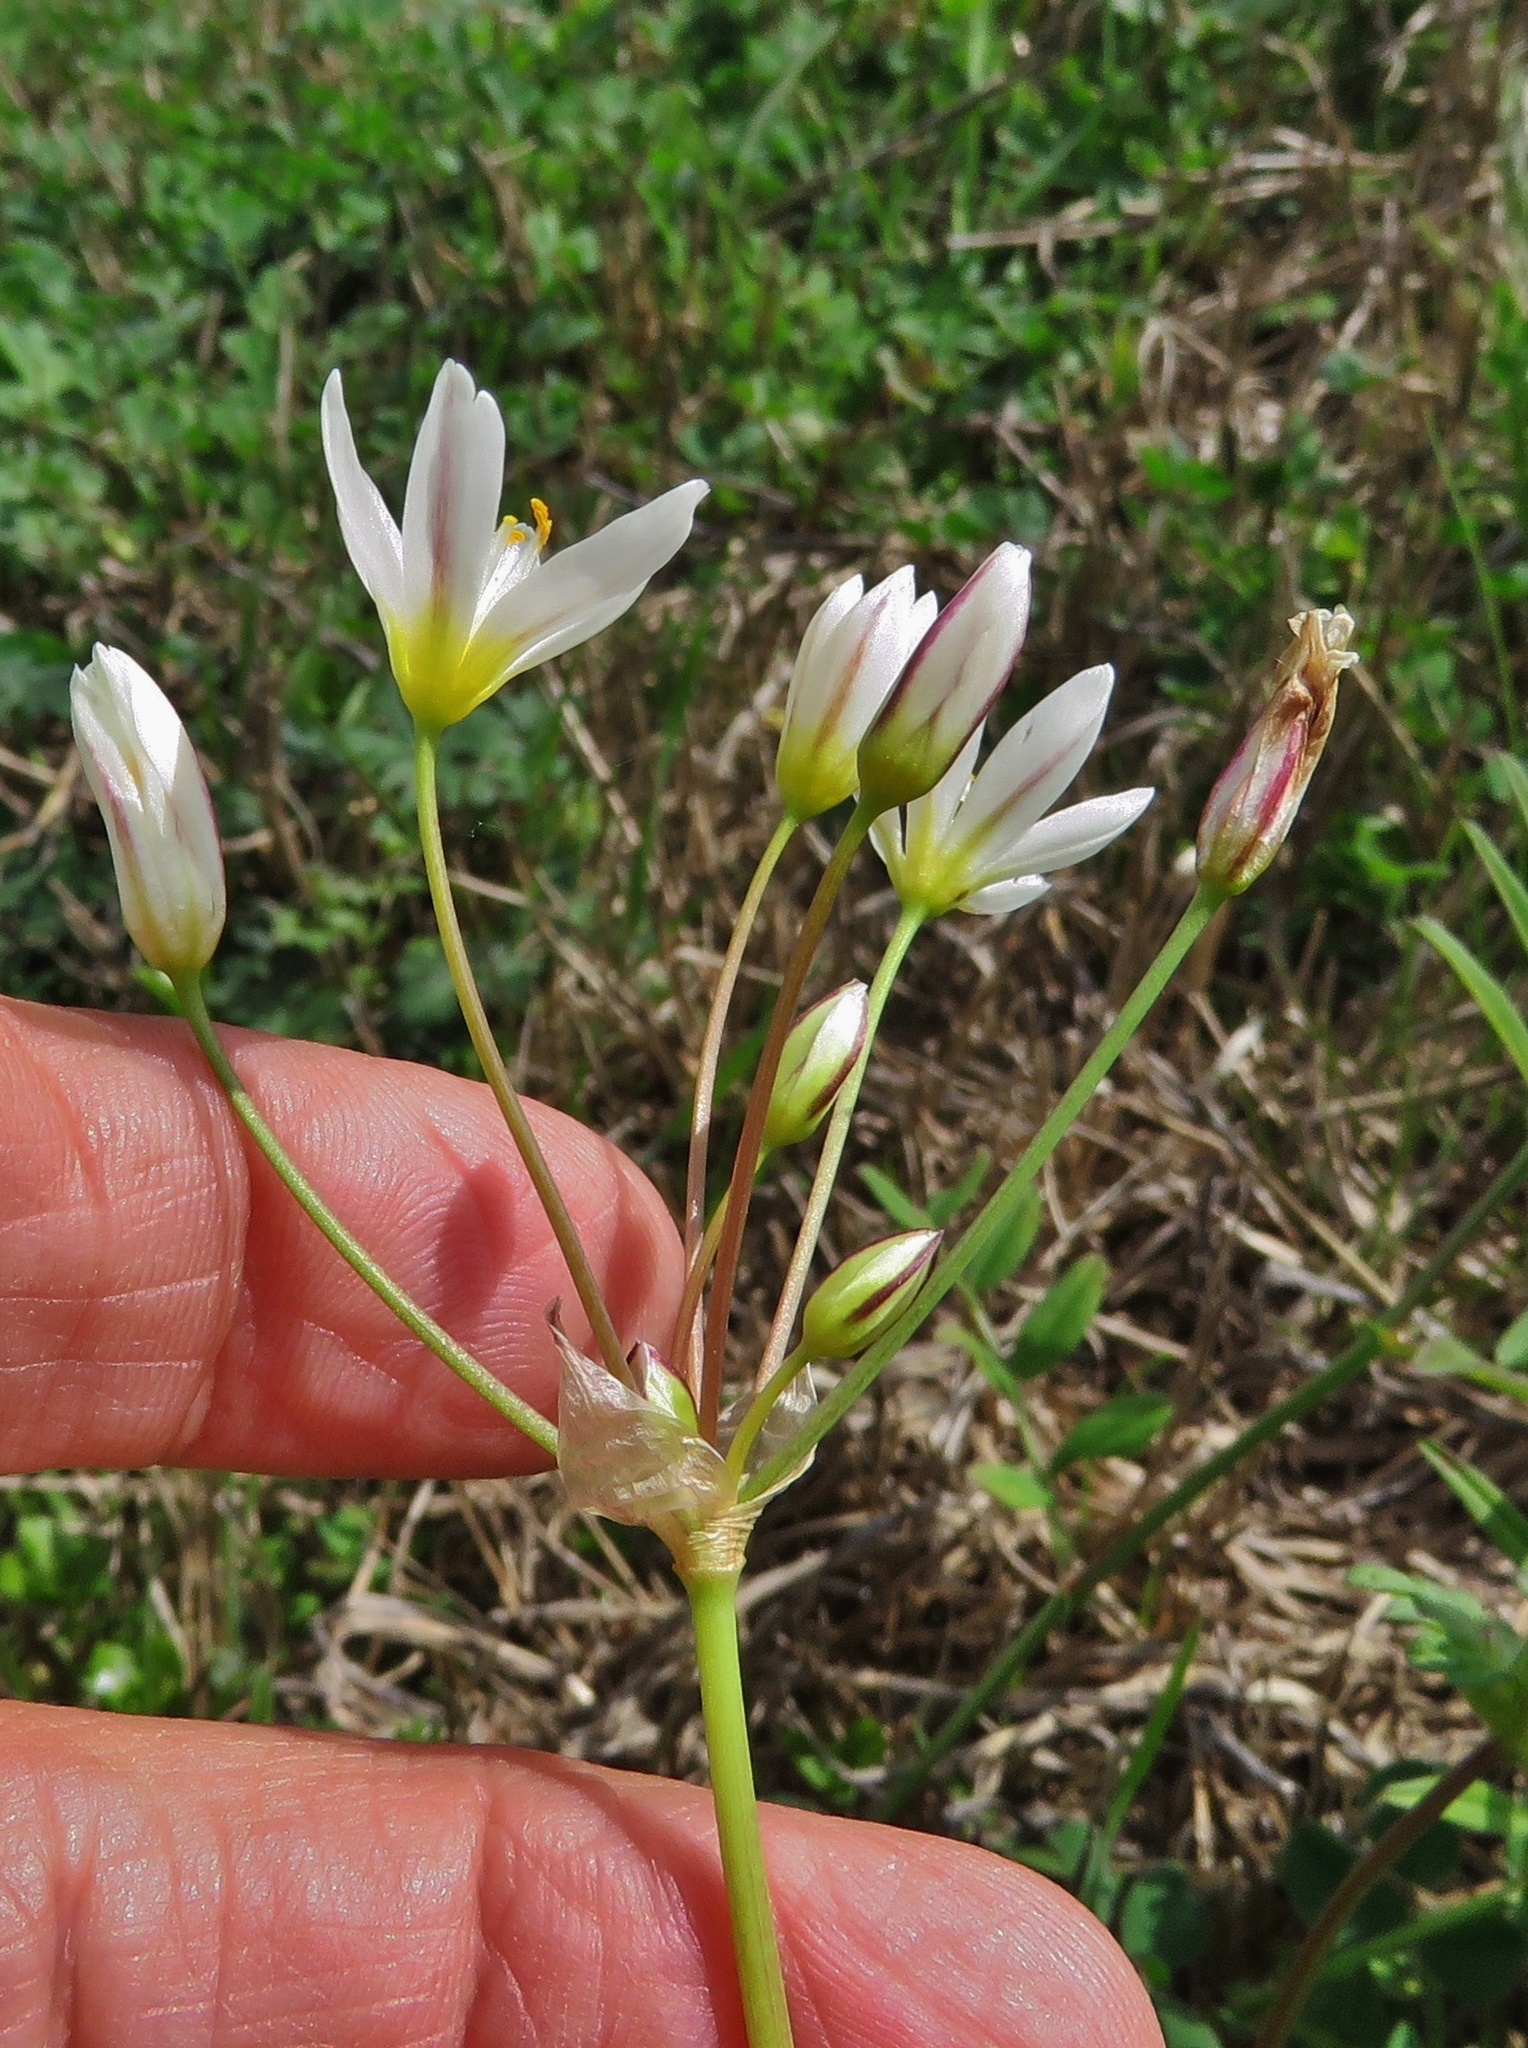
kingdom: Plantae
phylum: Tracheophyta
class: Liliopsida
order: Asparagales
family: Amaryllidaceae
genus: Nothoscordum
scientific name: Nothoscordum bivalve
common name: Crow-poison
